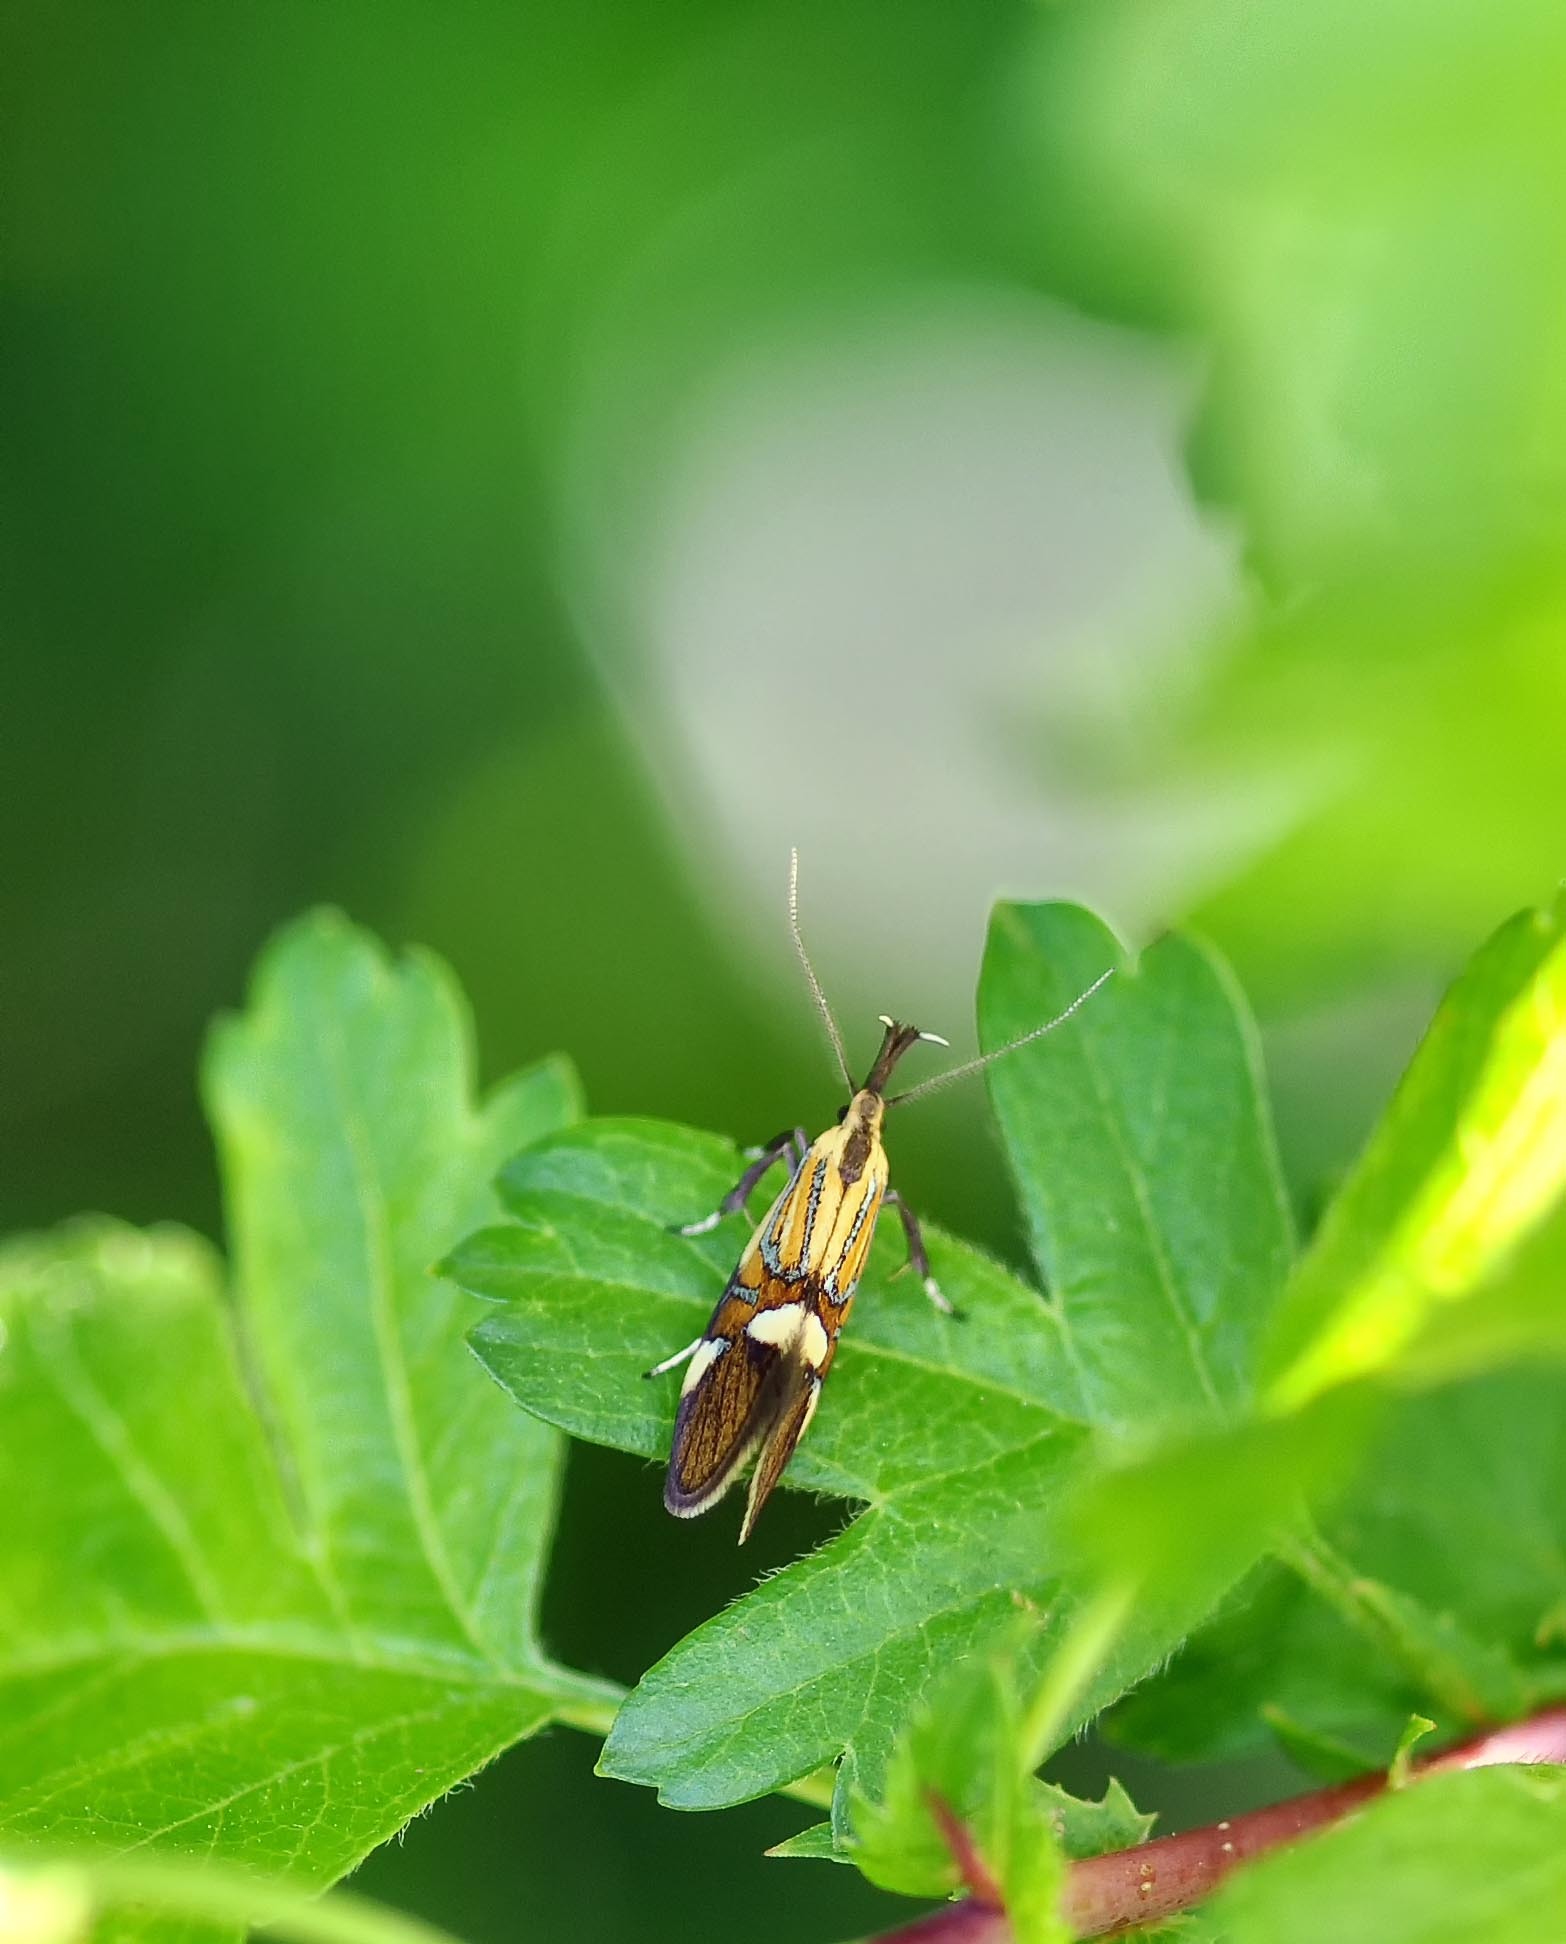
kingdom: Animalia
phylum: Arthropoda
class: Insecta
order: Lepidoptera
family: Oecophoridae
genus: Oecophora
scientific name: Oecophora Alabonia geoffrella
